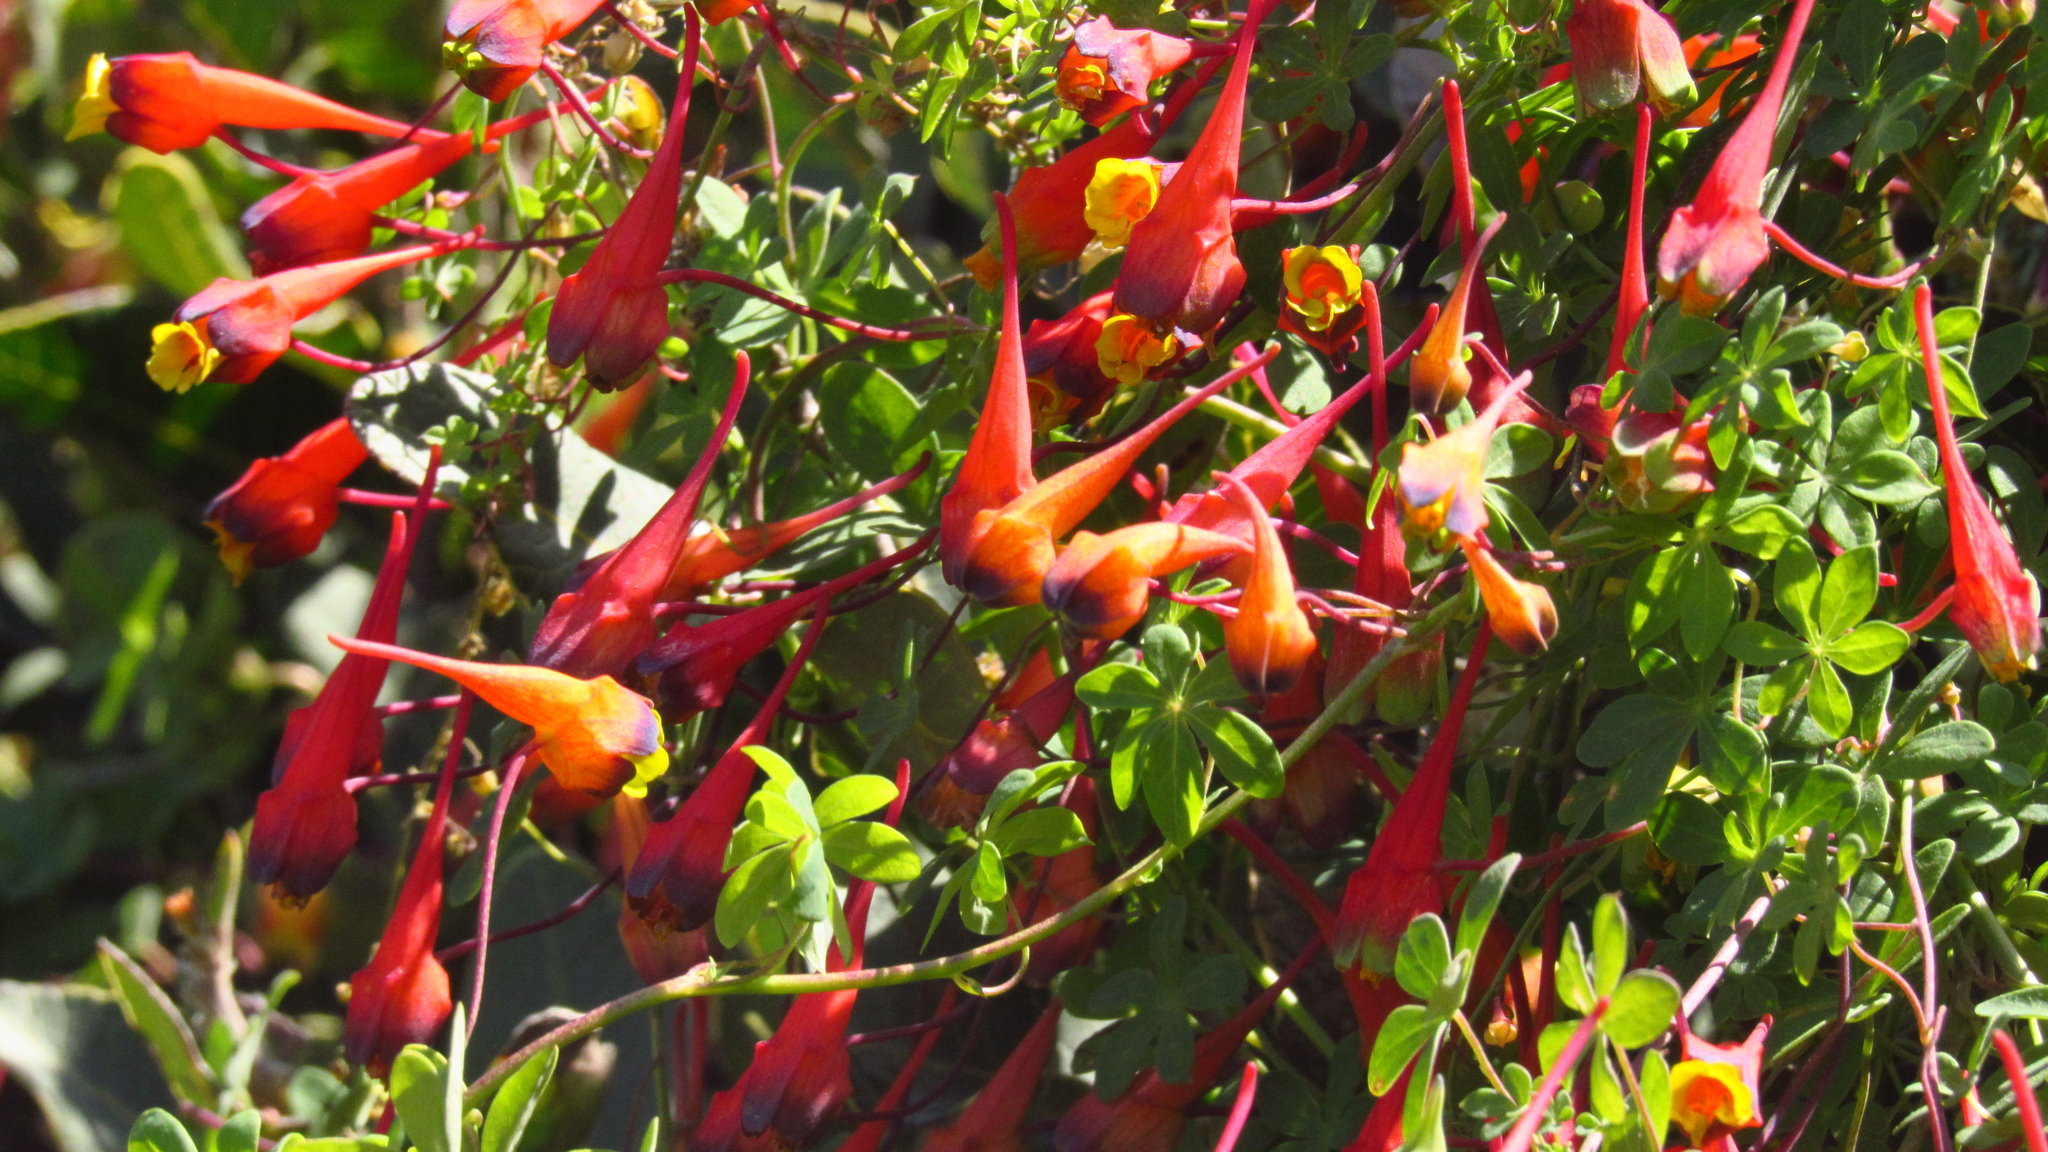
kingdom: Plantae
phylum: Tracheophyta
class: Magnoliopsida
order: Brassicales
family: Tropaeolaceae
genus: Tropaeolum
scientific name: Tropaeolum tricolor
